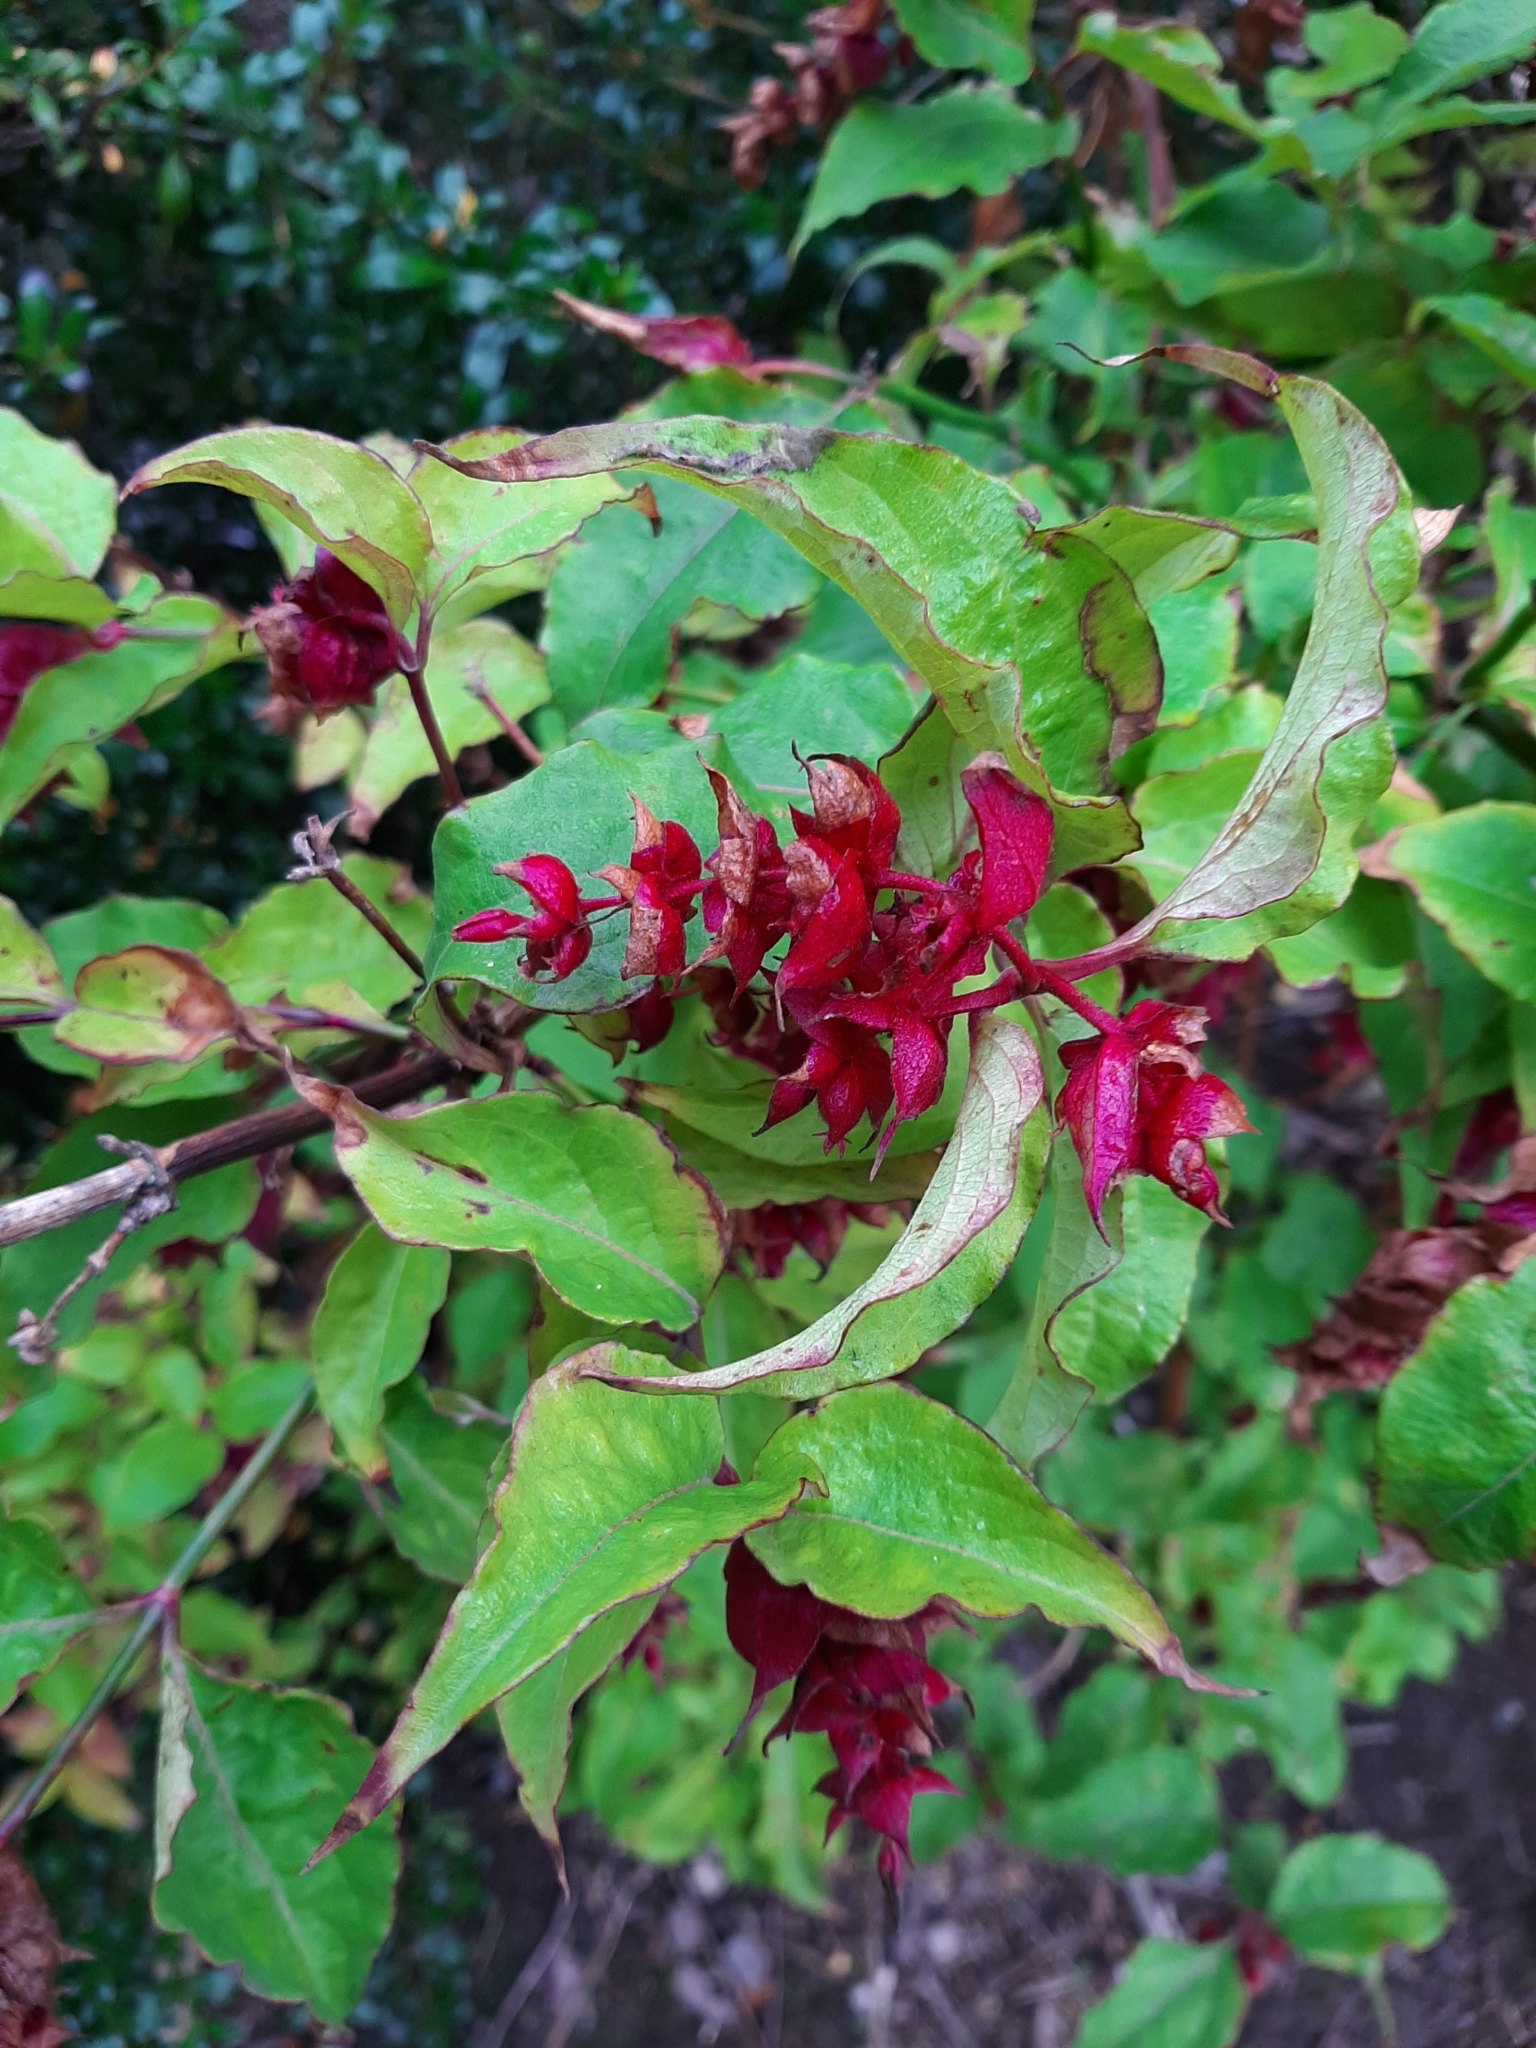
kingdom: Plantae
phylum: Tracheophyta
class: Magnoliopsida
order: Dipsacales
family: Caprifoliaceae
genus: Leycesteria
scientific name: Leycesteria formosa
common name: Himalayan honeysuckle
